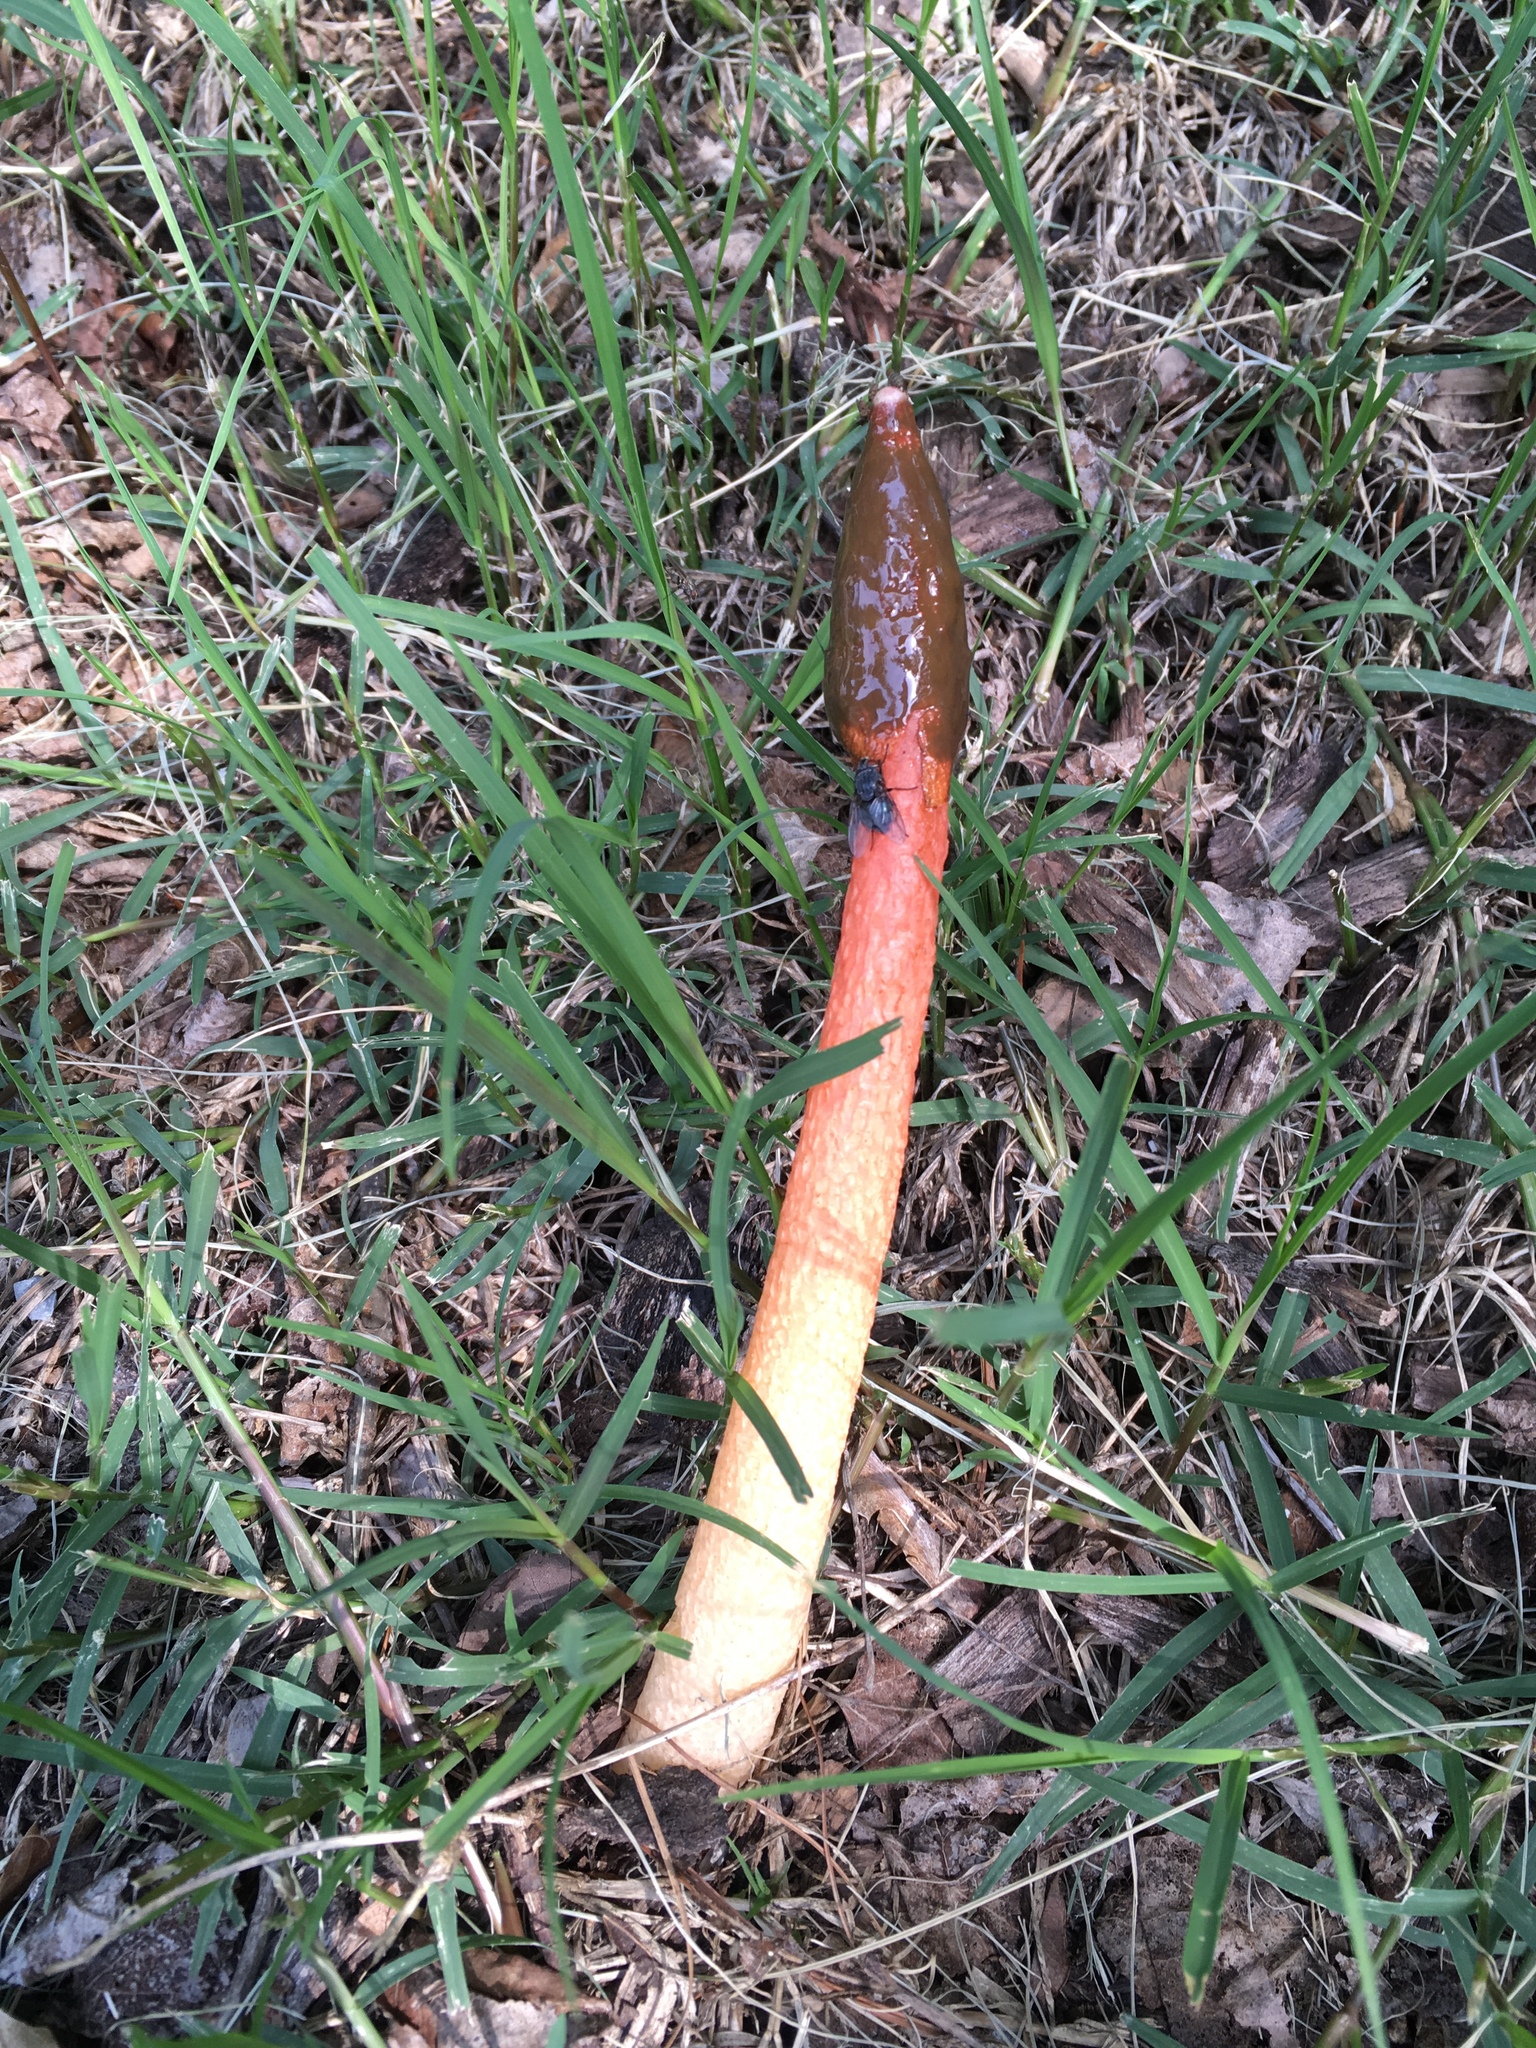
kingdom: Fungi
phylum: Basidiomycota
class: Agaricomycetes
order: Phallales
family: Phallaceae
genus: Phallus
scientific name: Phallus rugulosus
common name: Wrinkly stinkhorn
